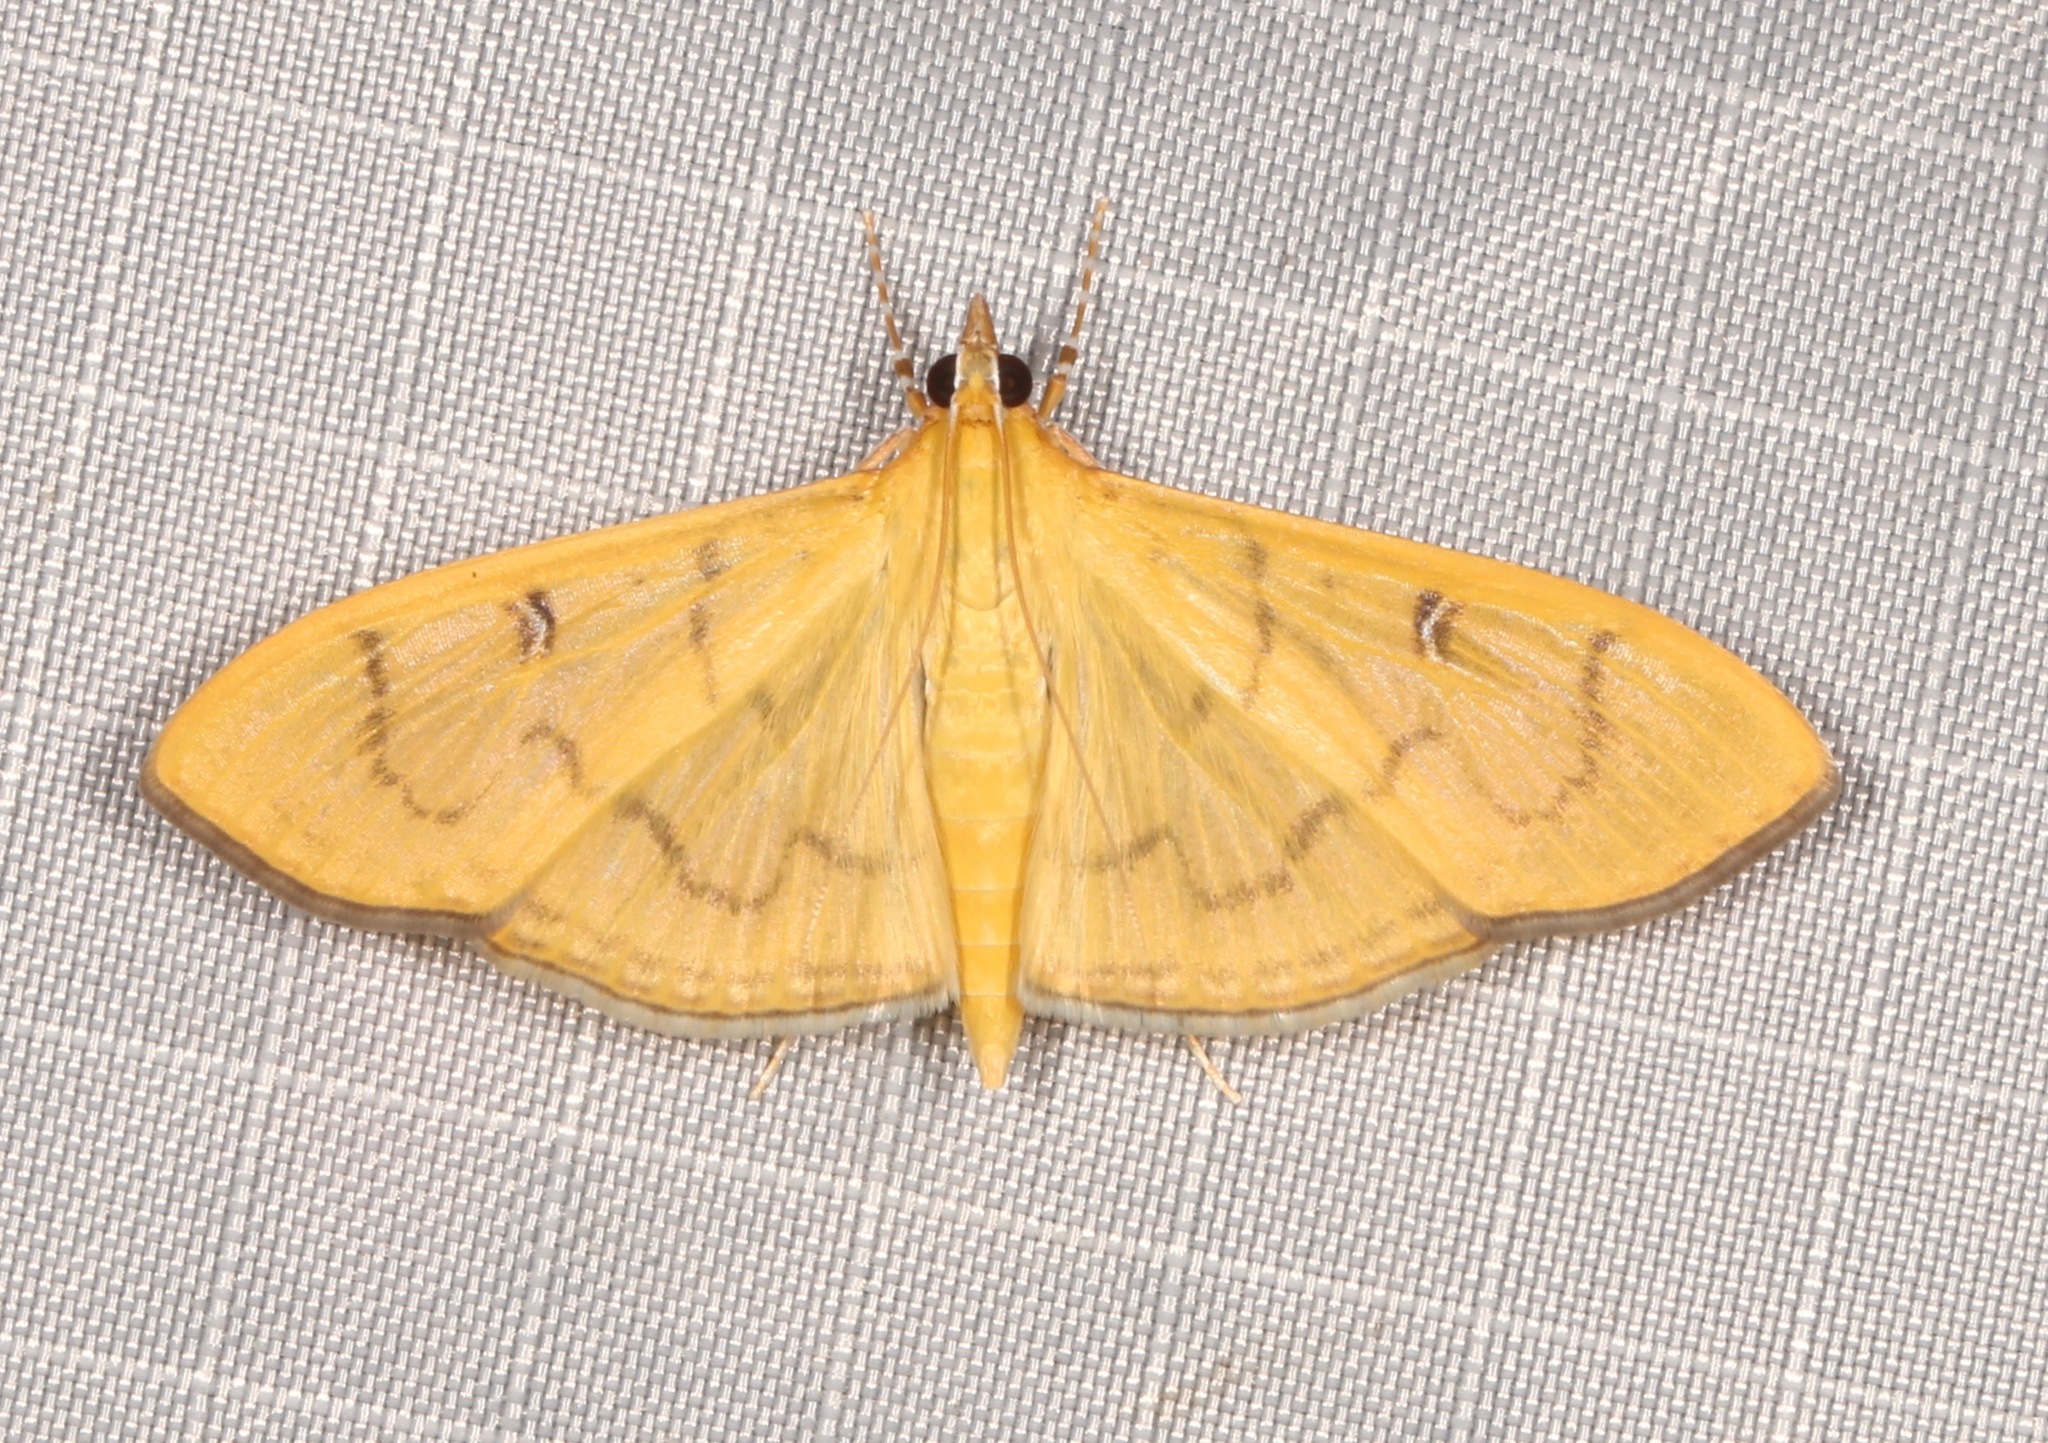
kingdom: Animalia
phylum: Arthropoda
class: Insecta
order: Lepidoptera
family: Crambidae
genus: Condylorrhiza
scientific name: Condylorrhiza vestigialis
